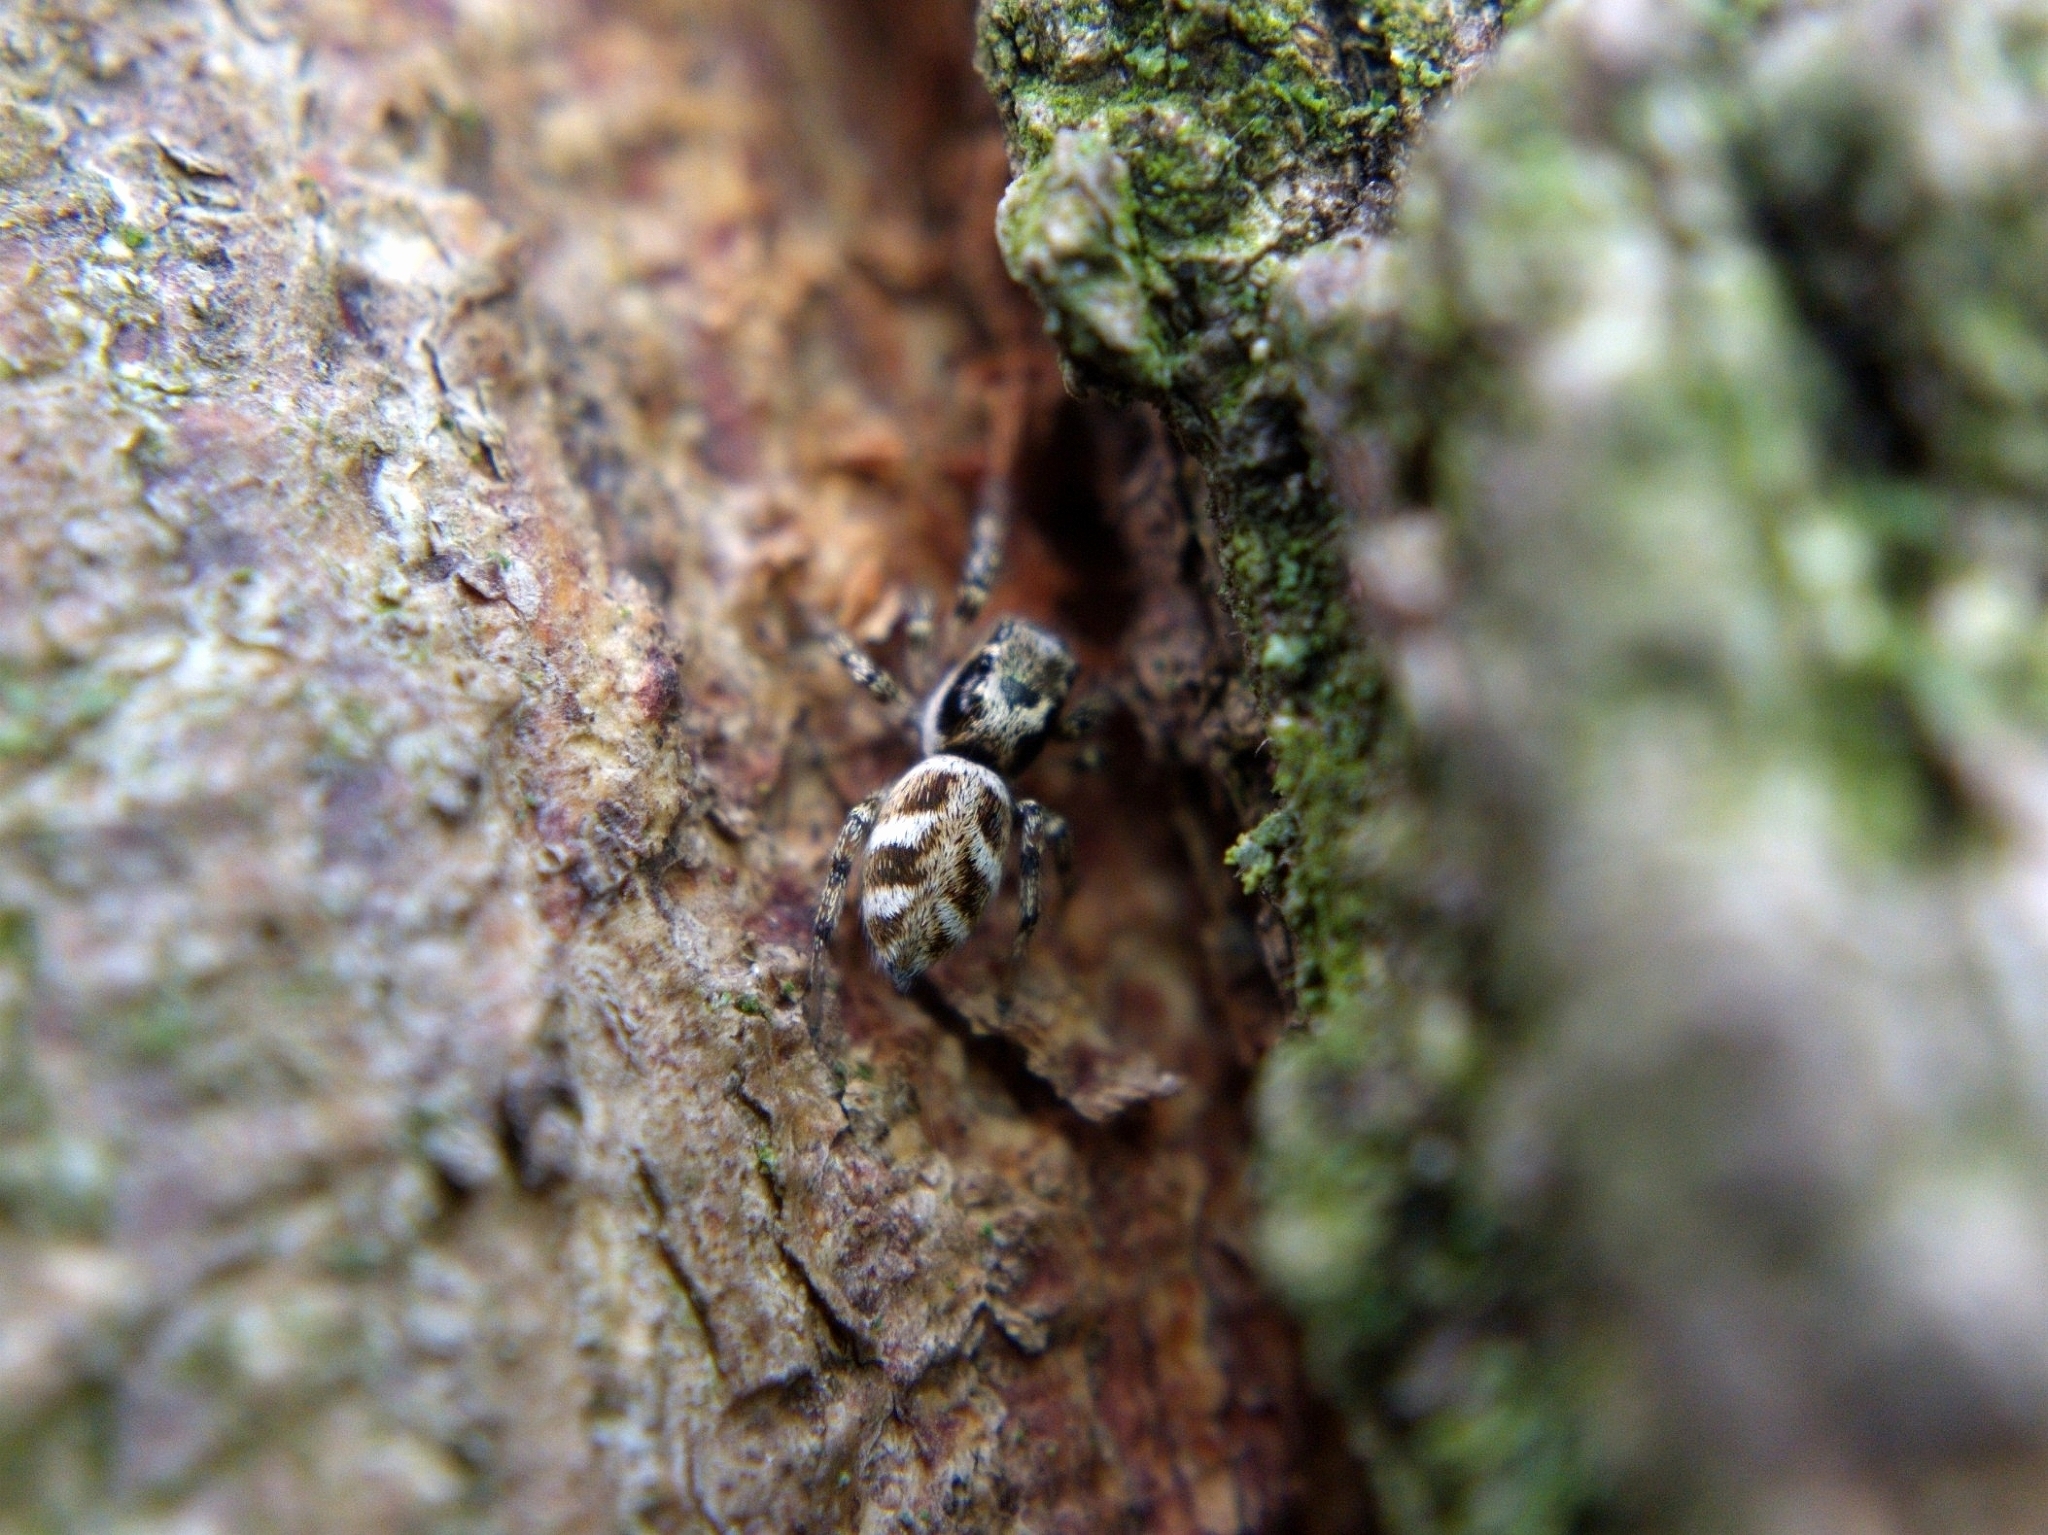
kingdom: Animalia
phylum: Arthropoda
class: Arachnida
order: Araneae
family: Salticidae
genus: Salticus
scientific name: Salticus scenicus
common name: Zebra jumper
